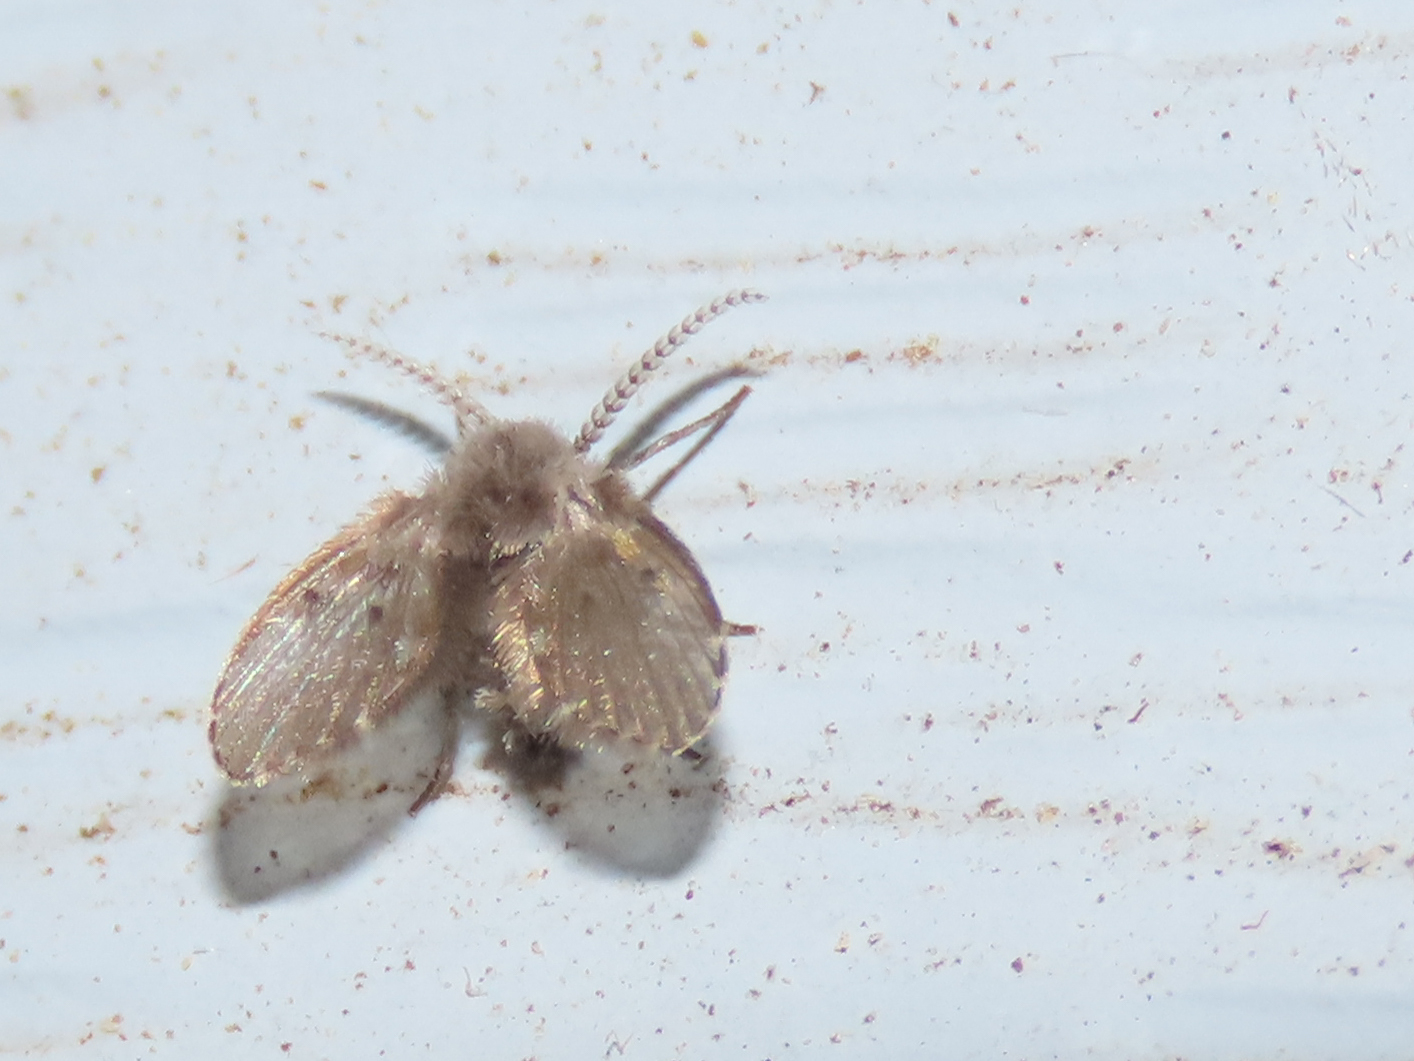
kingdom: Animalia
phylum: Arthropoda
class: Insecta
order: Diptera
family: Psychodidae
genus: Clogmia
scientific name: Clogmia albipunctatus
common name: White-spotted moth fly
